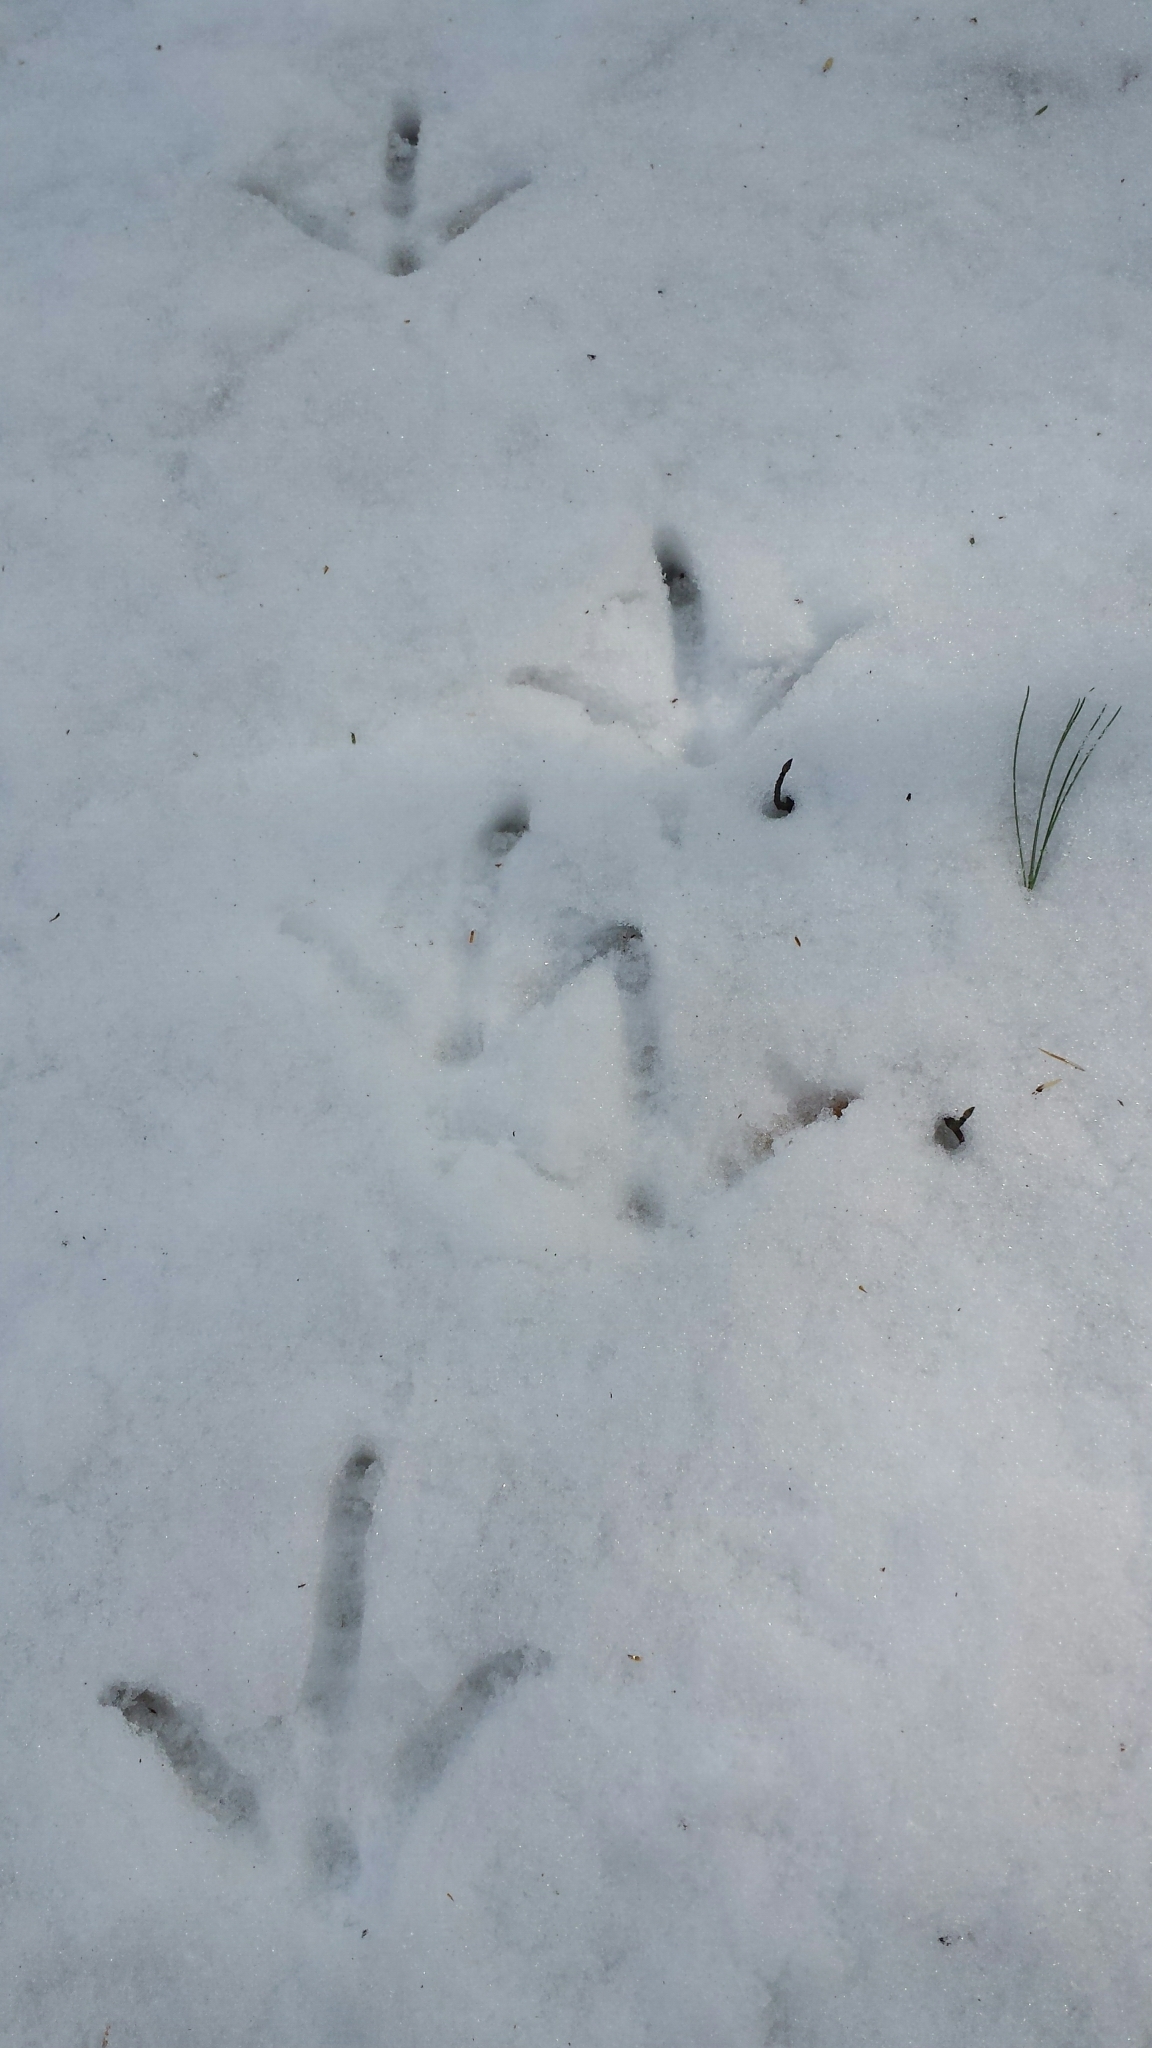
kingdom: Animalia
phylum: Chordata
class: Aves
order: Galliformes
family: Phasianidae
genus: Meleagris
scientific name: Meleagris gallopavo
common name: Wild turkey
